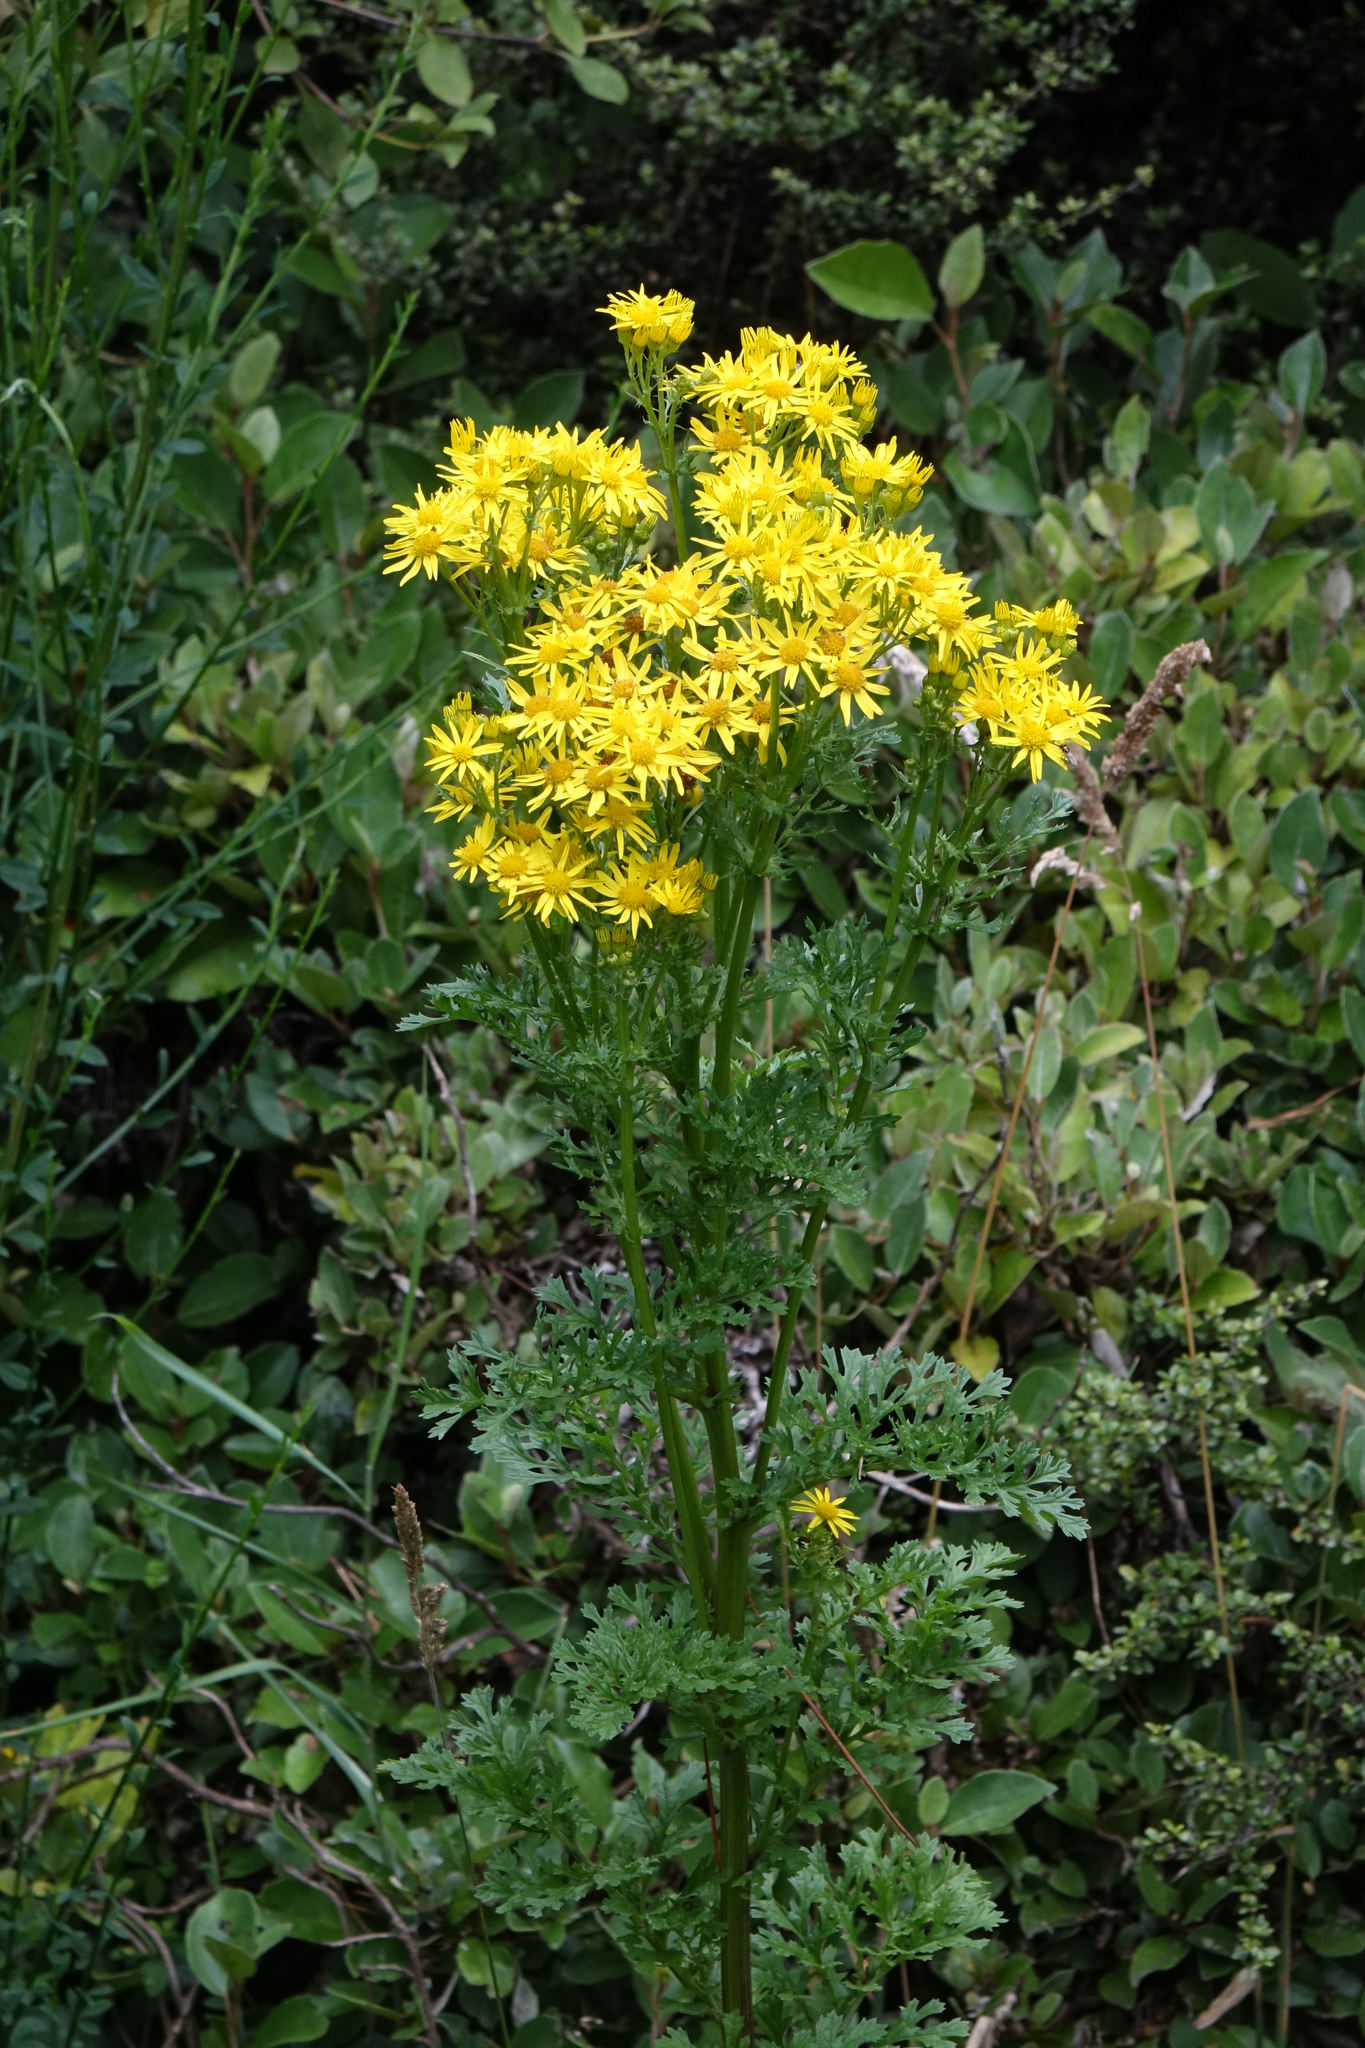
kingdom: Plantae
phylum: Tracheophyta
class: Magnoliopsida
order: Asterales
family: Asteraceae
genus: Jacobaea
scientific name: Jacobaea vulgaris
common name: Stinking willie
